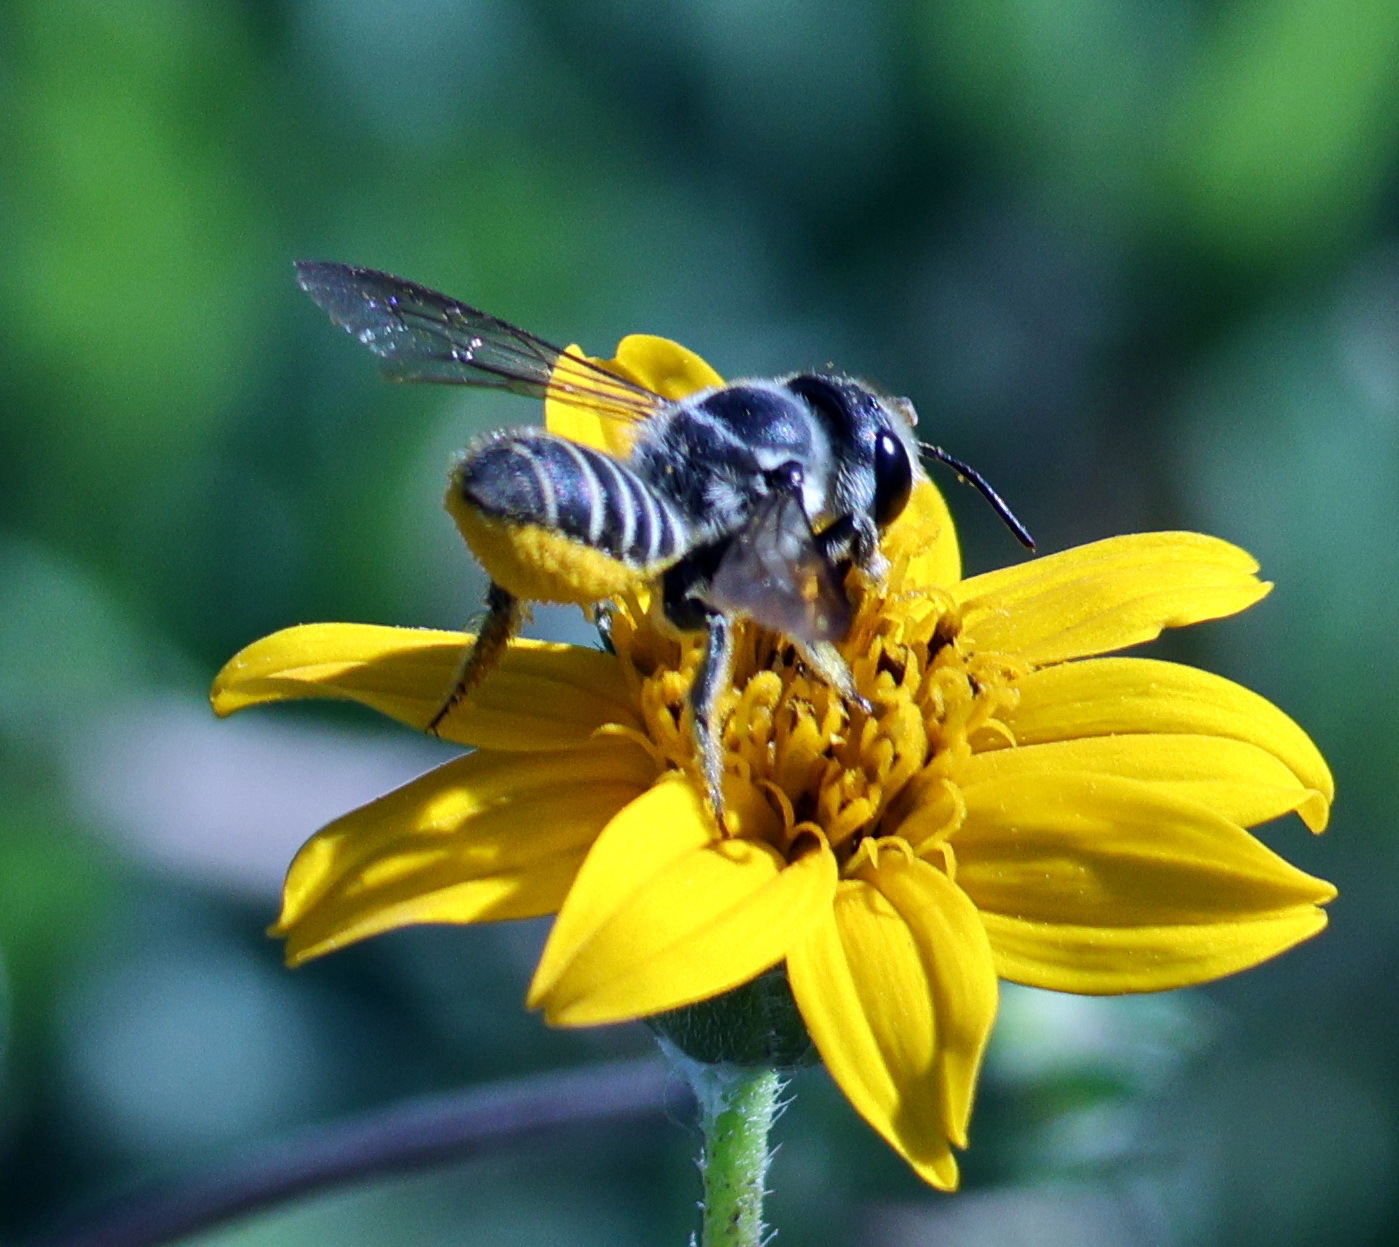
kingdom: Animalia
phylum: Arthropoda
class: Insecta
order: Hymenoptera
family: Megachilidae
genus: Megachile
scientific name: Megachile zaptlana
